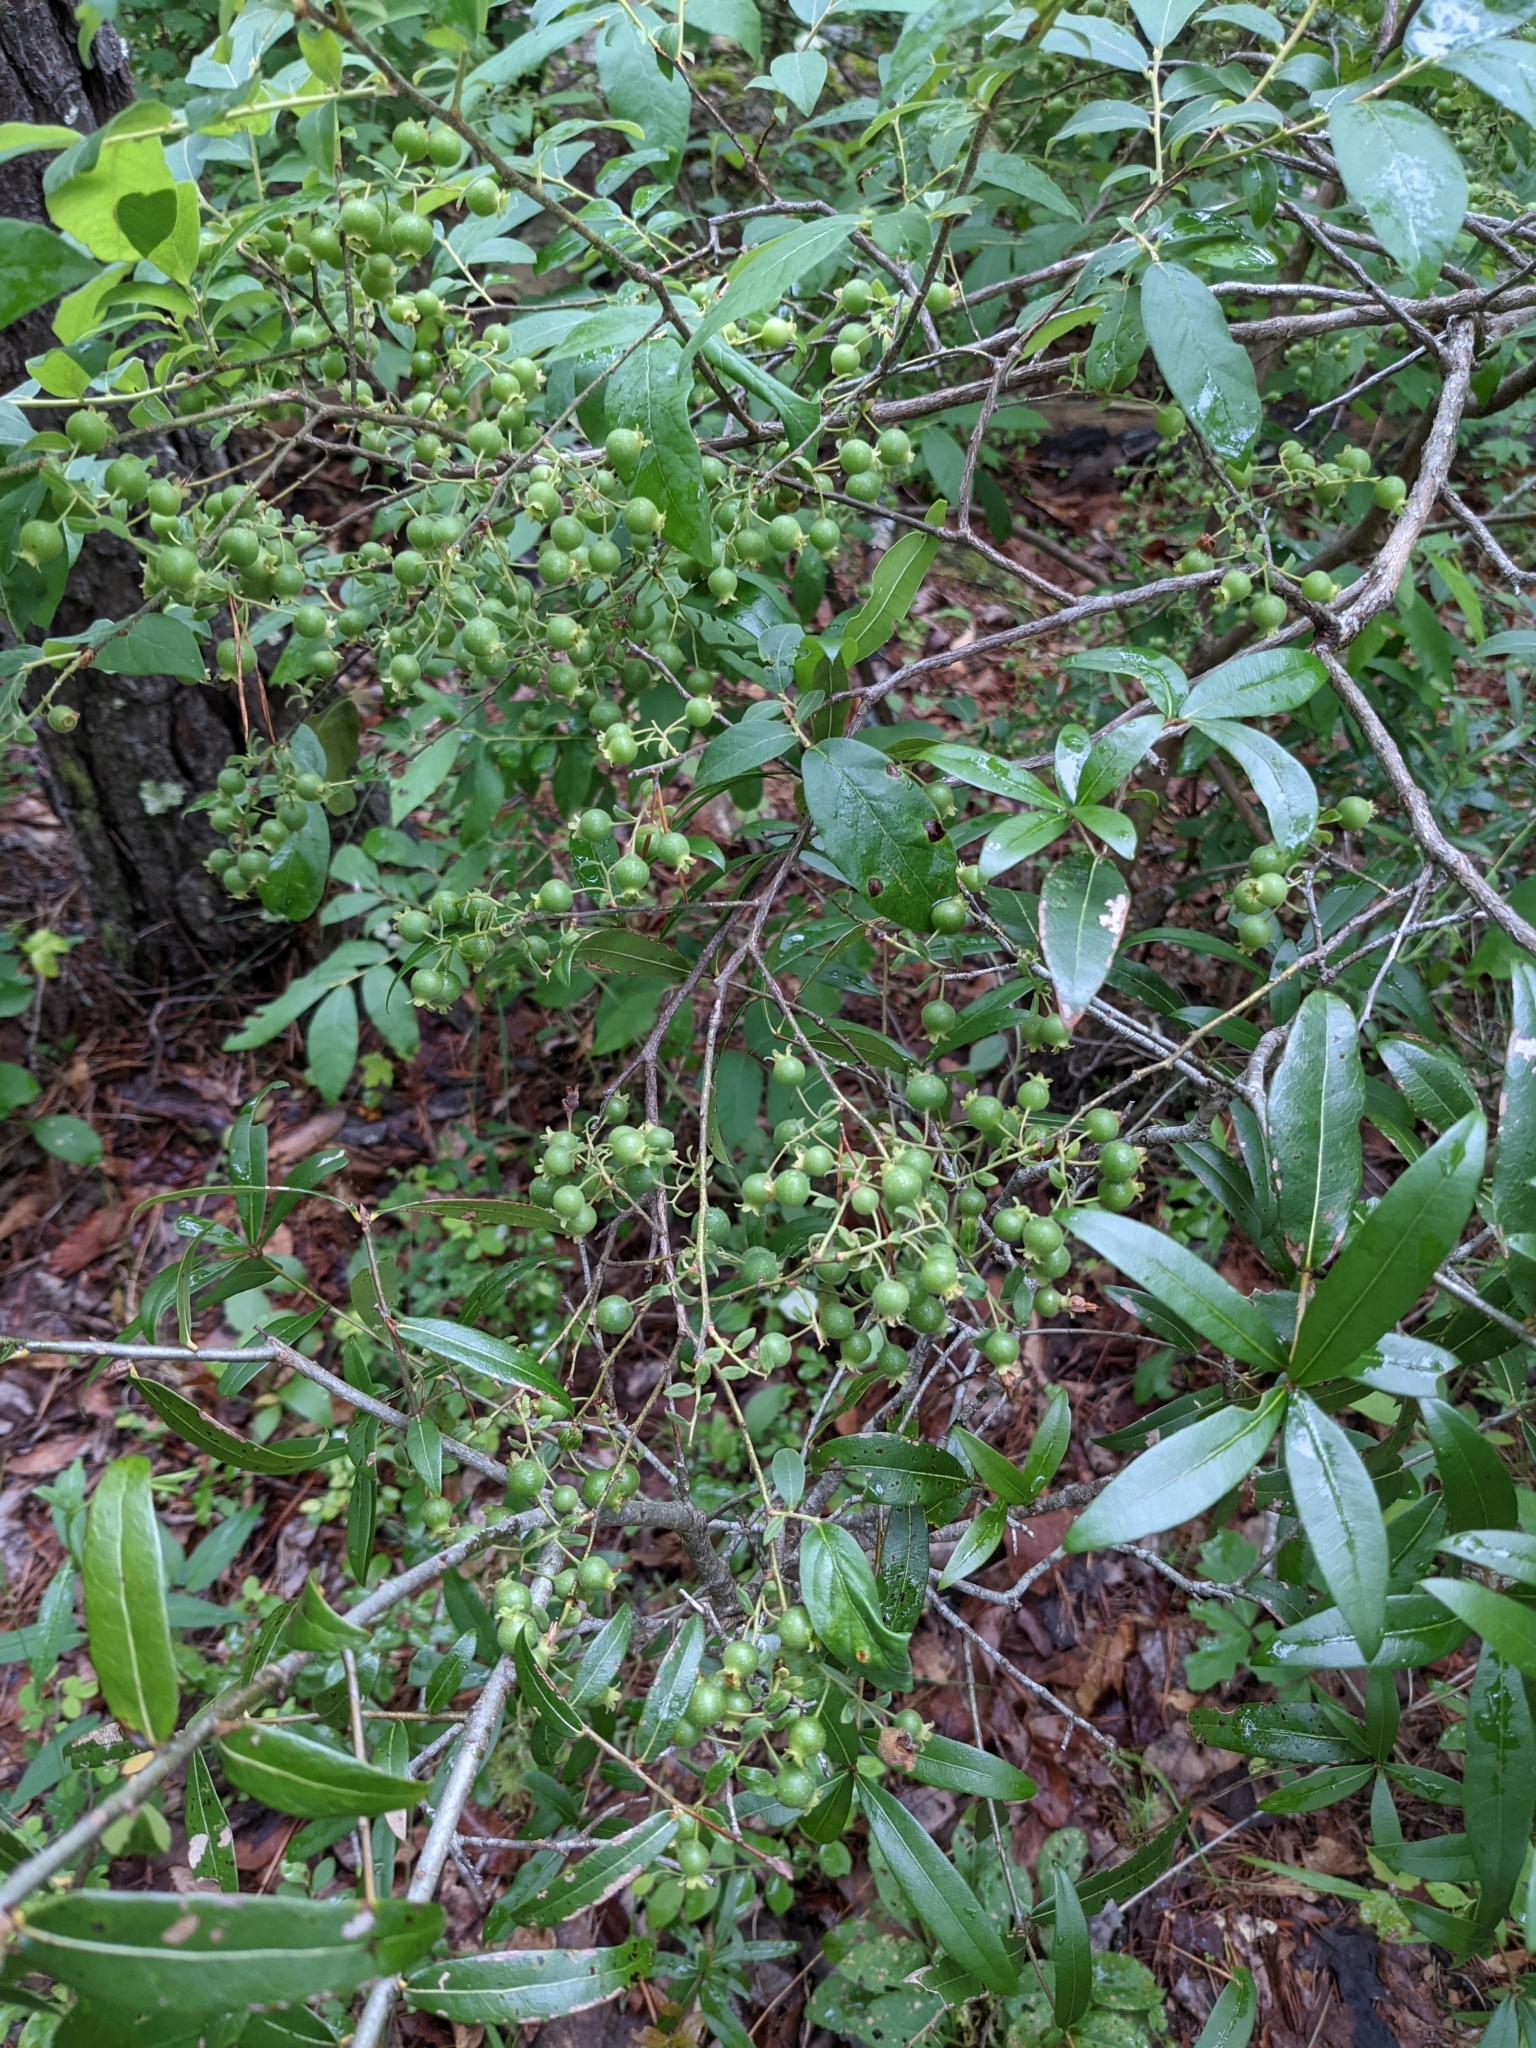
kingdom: Plantae
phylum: Tracheophyta
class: Magnoliopsida
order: Ericales
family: Ericaceae
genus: Vaccinium
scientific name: Vaccinium stamineum
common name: Deerberry
